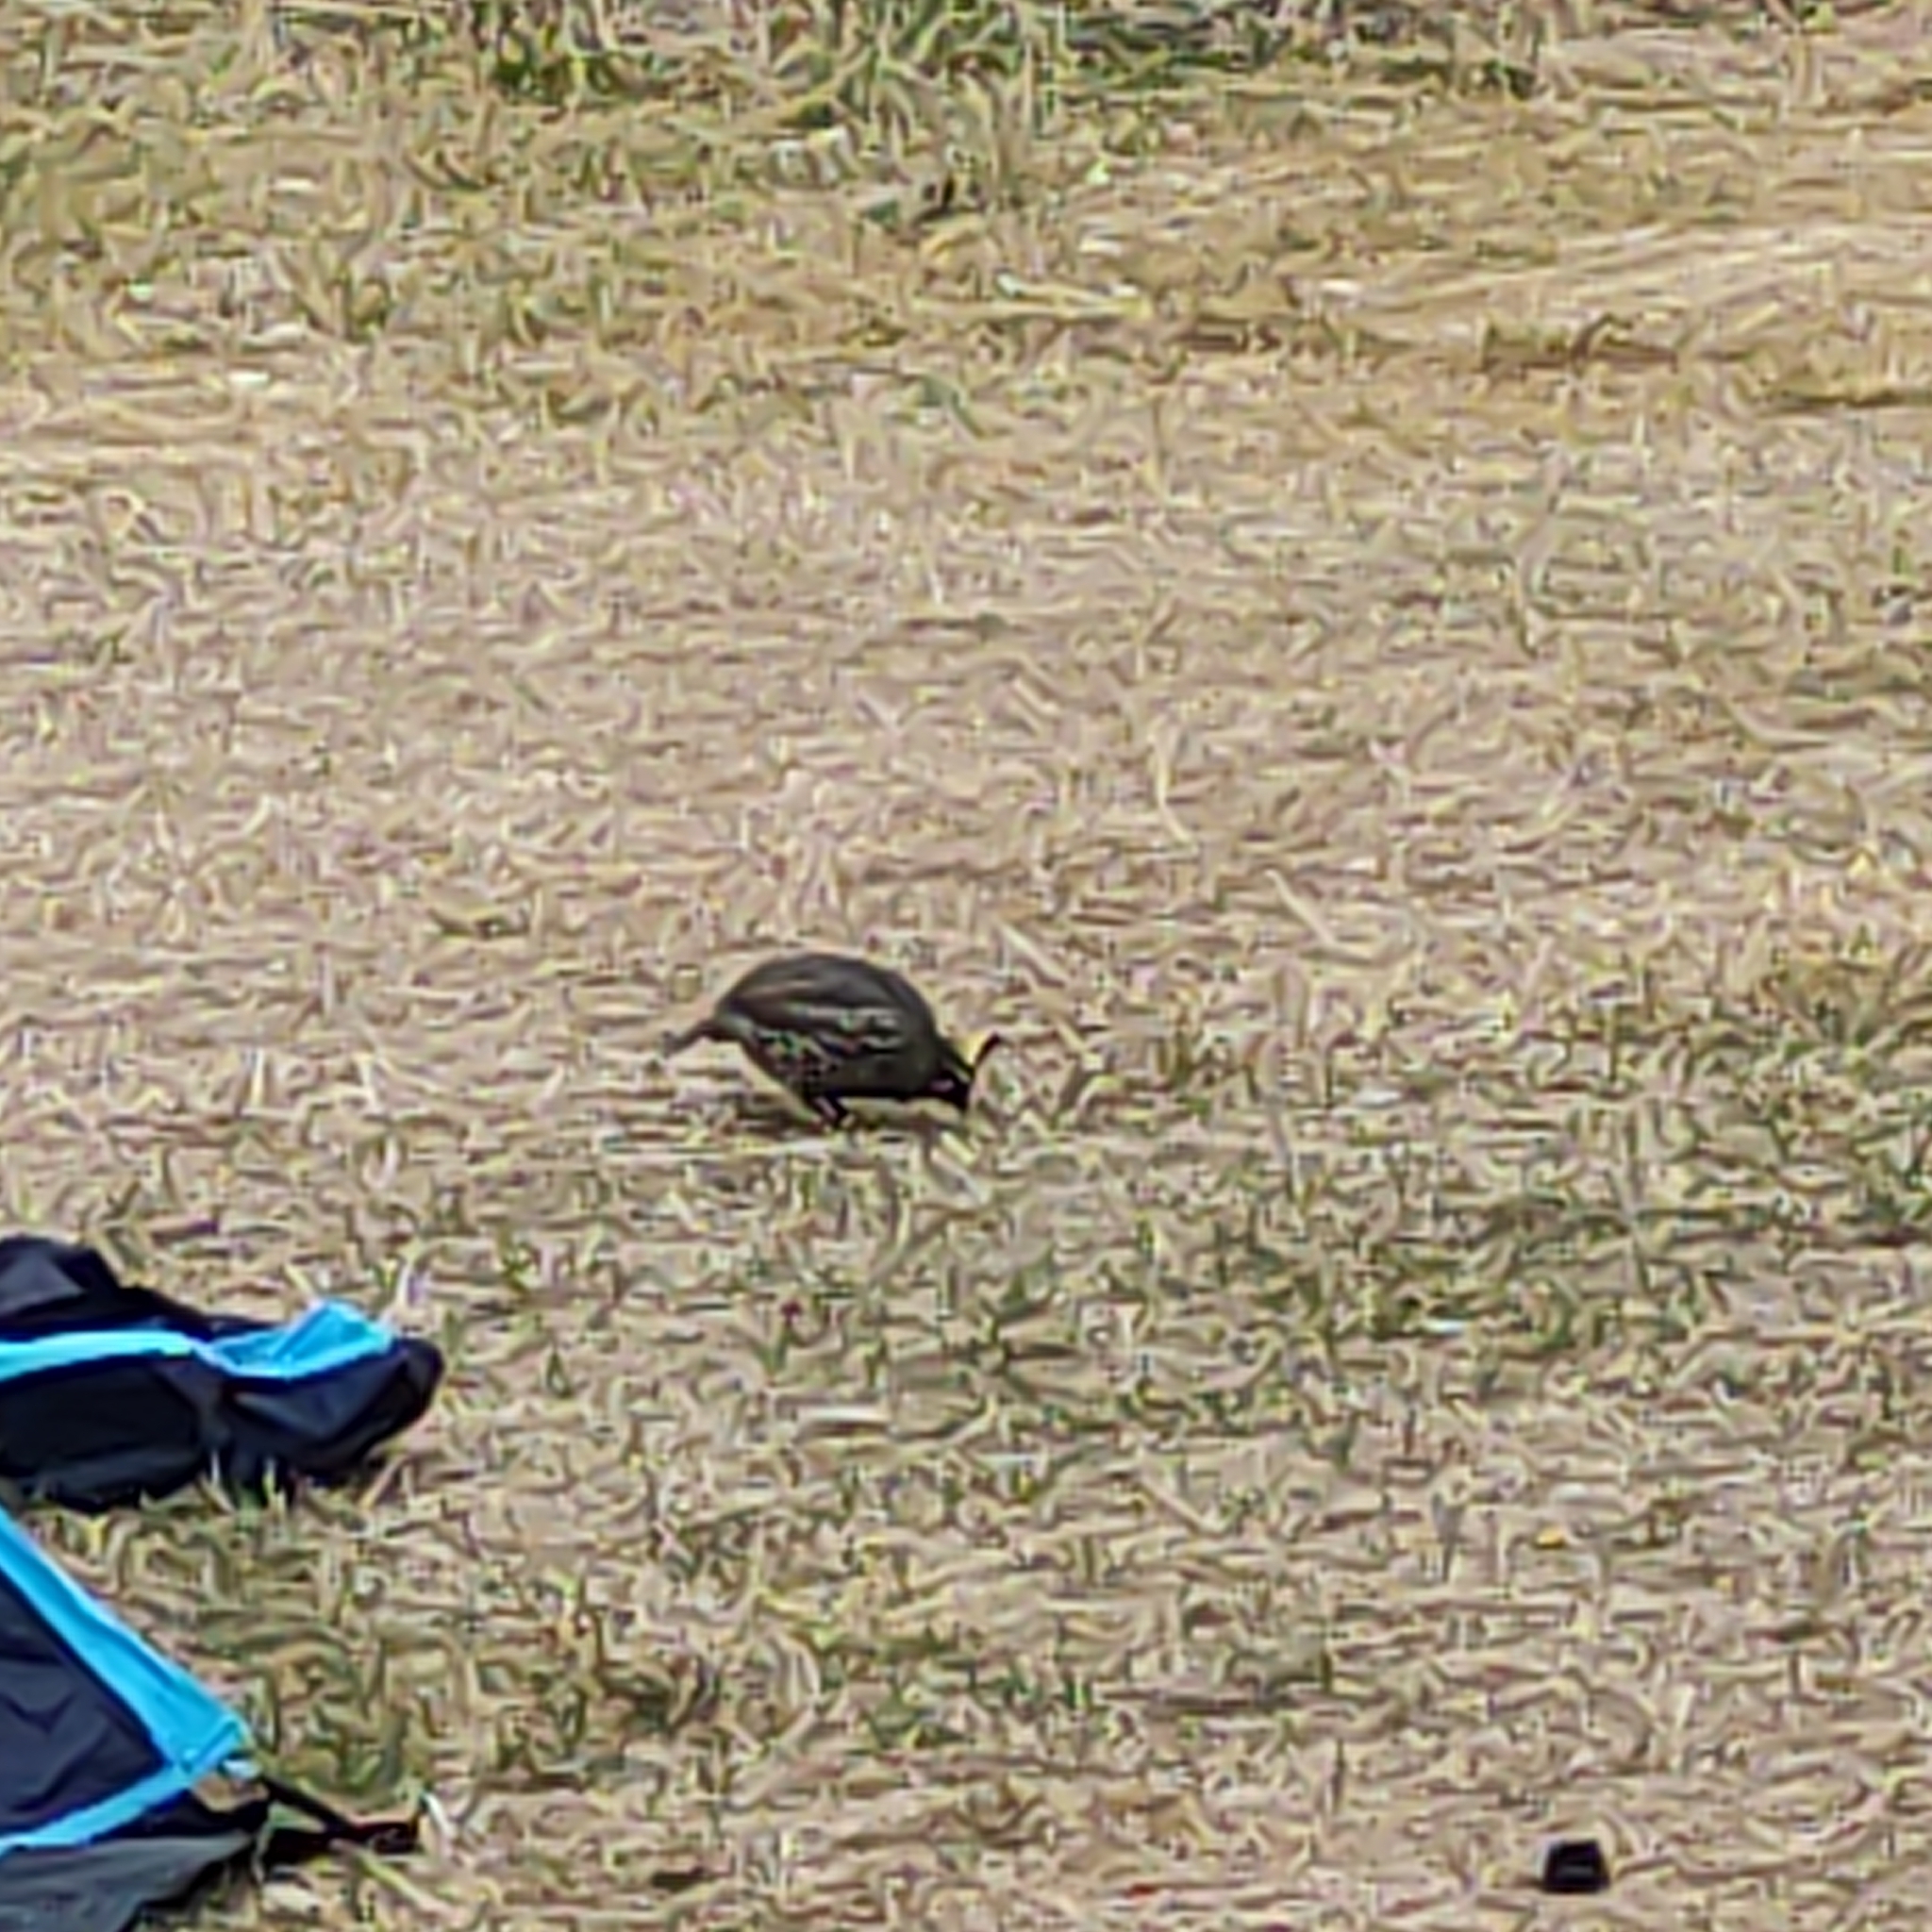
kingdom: Animalia
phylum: Chordata
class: Aves
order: Galliformes
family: Odontophoridae
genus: Callipepla
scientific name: Callipepla californica
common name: California quail
